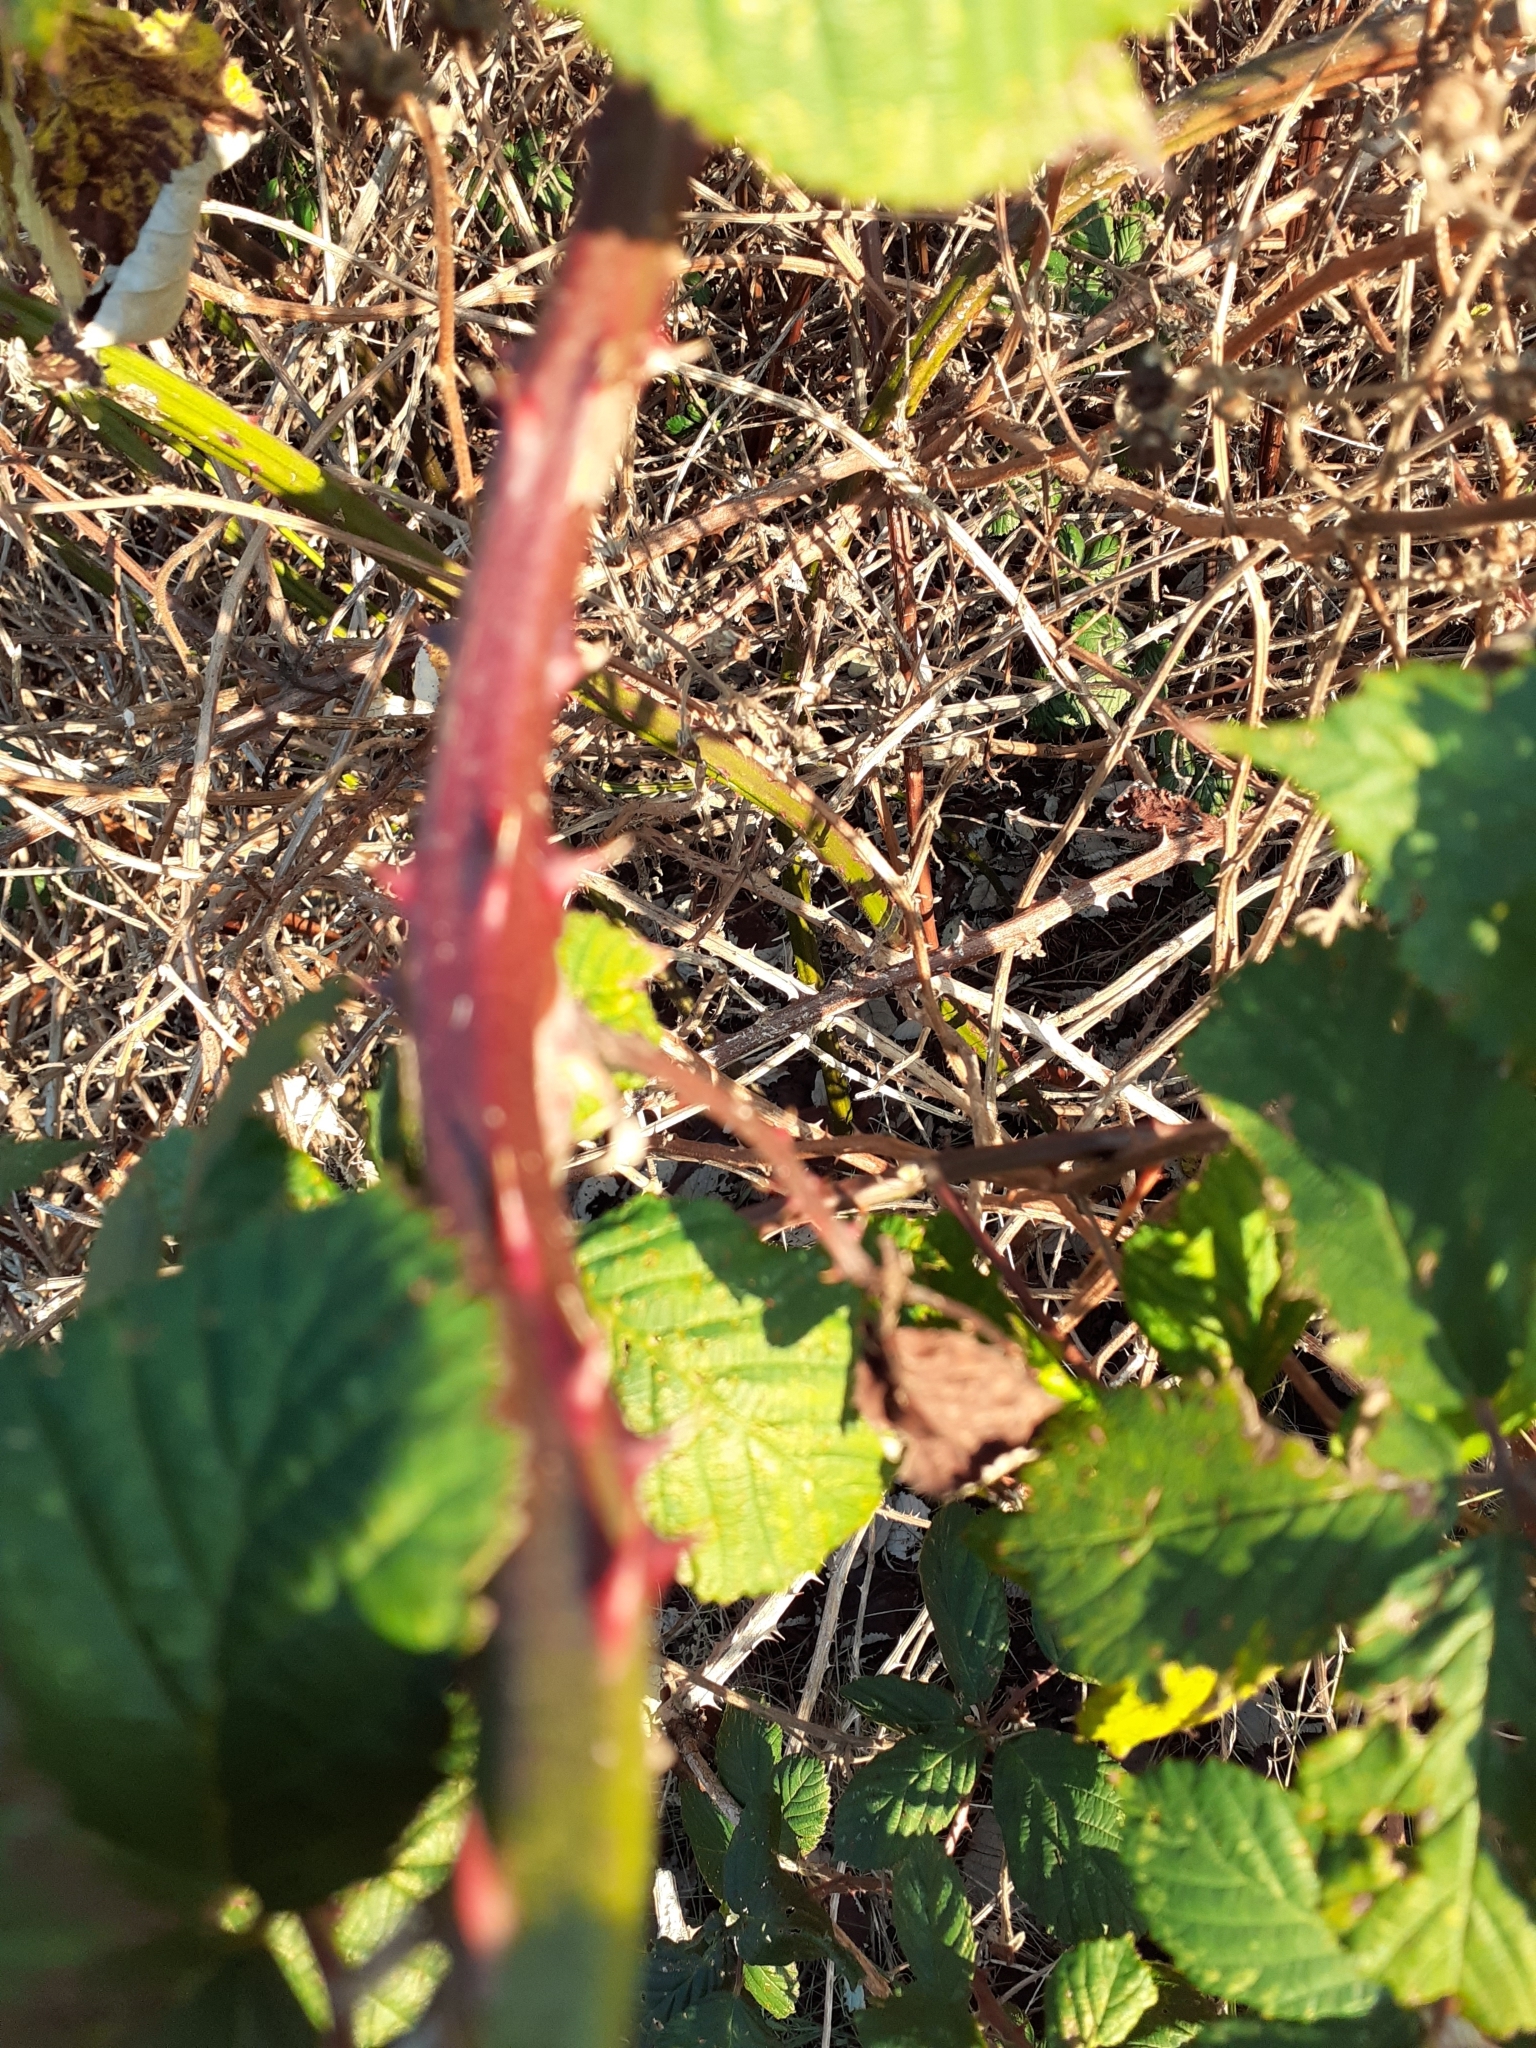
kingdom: Plantae
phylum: Tracheophyta
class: Magnoliopsida
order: Rosales
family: Rosaceae
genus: Rubus
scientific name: Rubus armeniacus
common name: Himalayan blackberry
